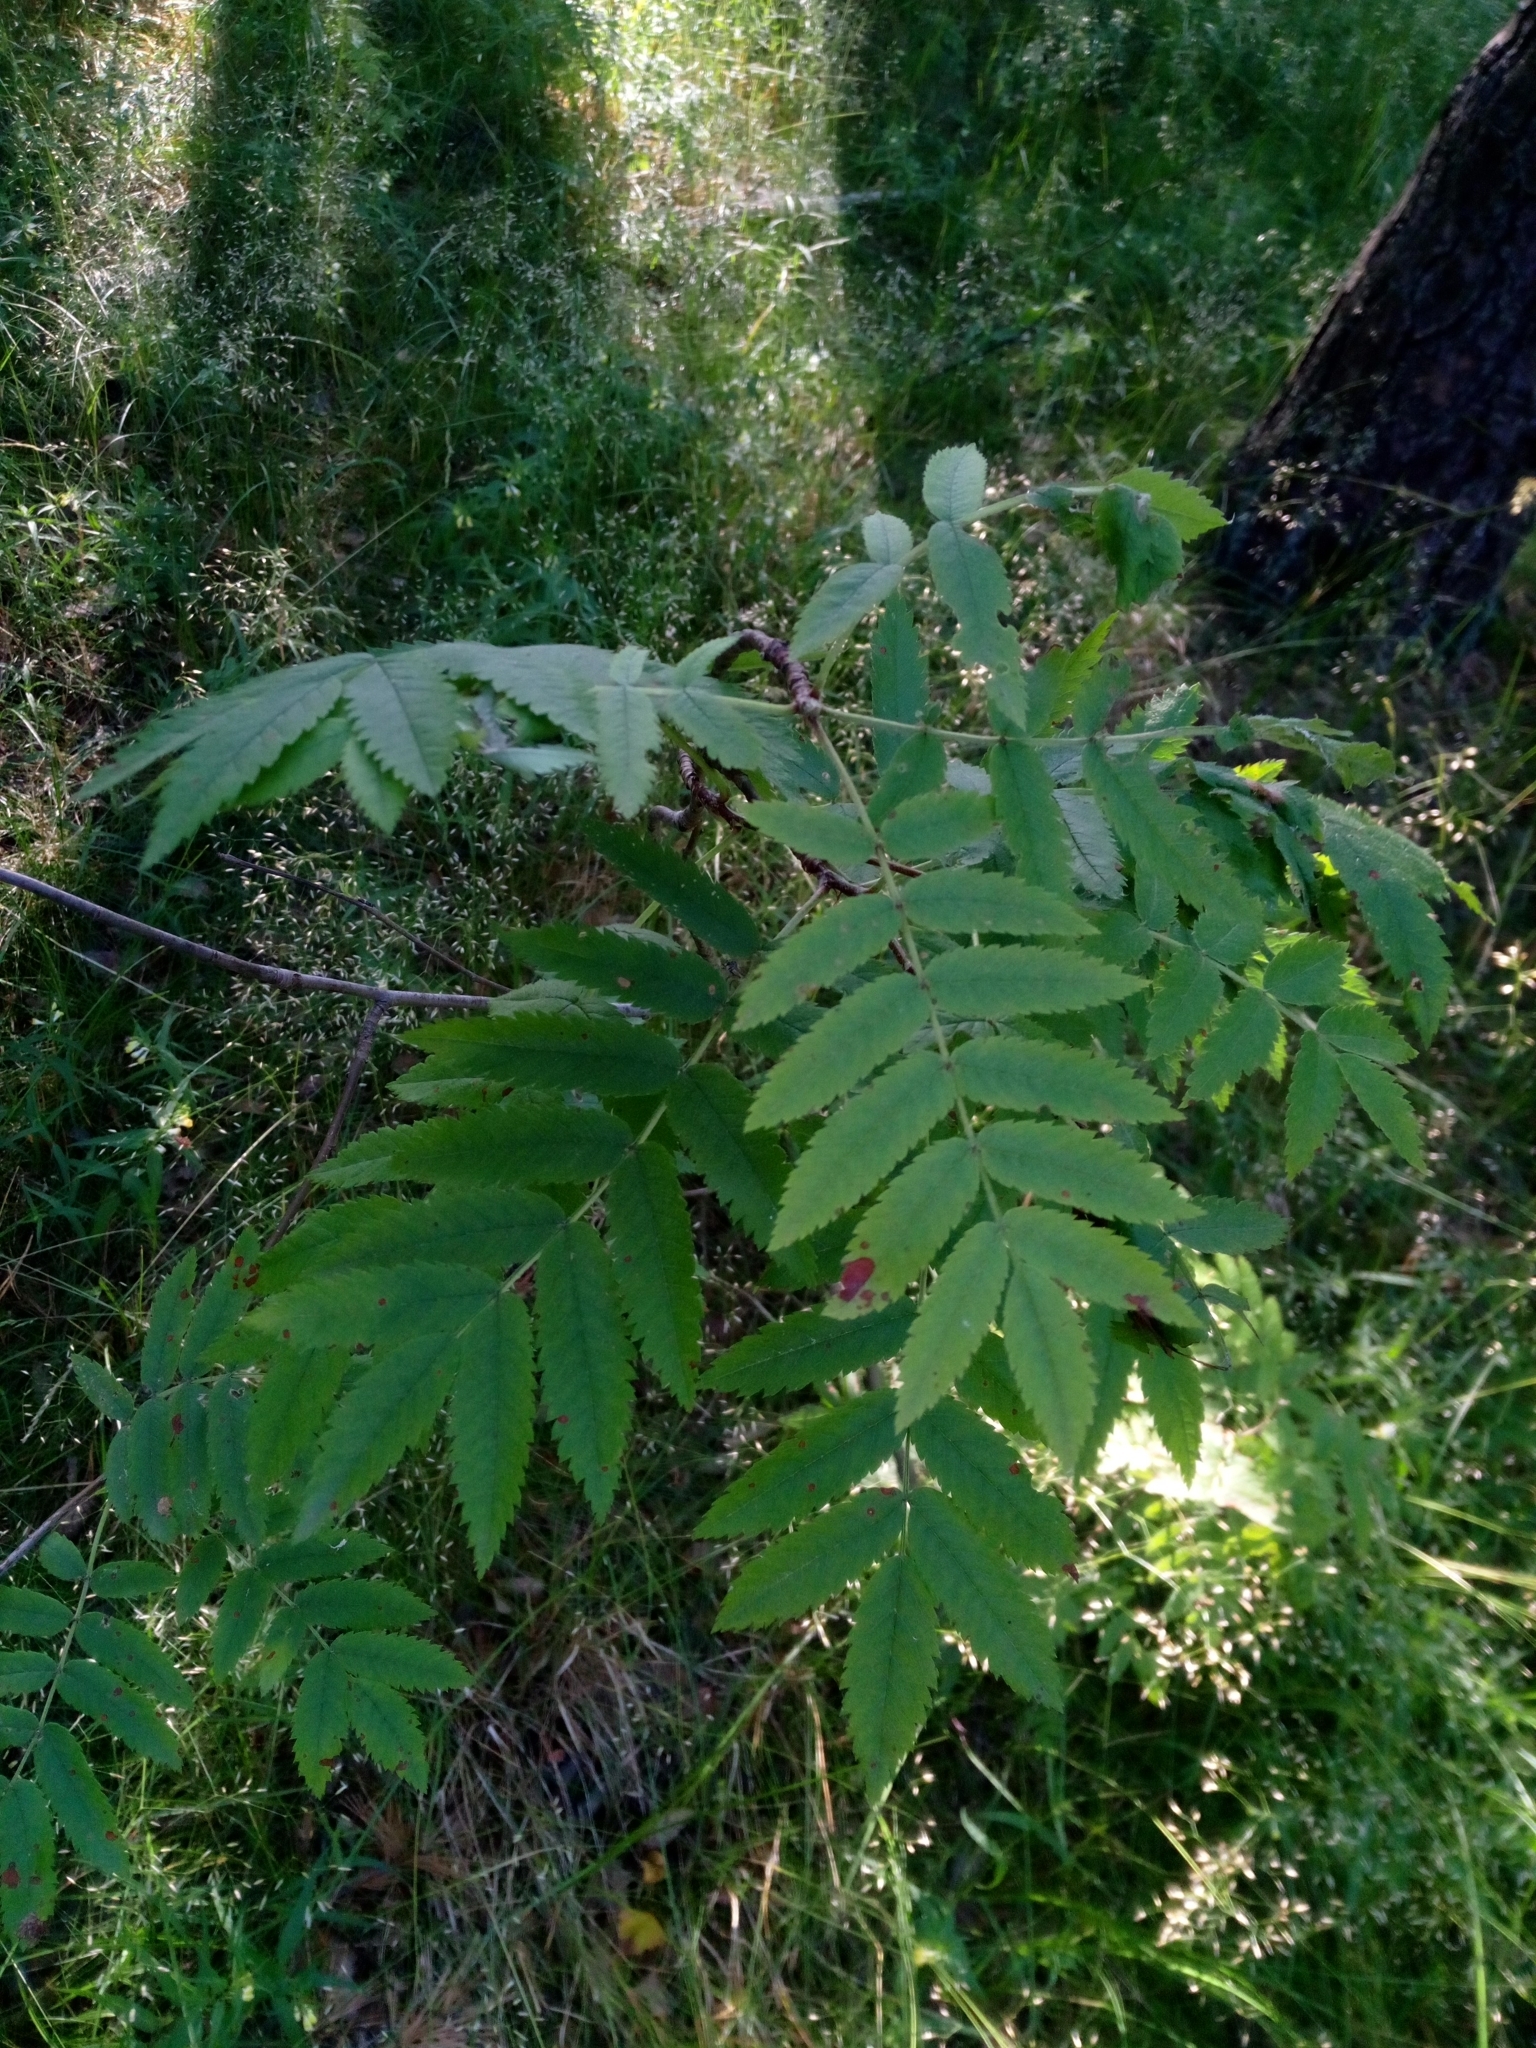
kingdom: Plantae
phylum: Tracheophyta
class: Magnoliopsida
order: Rosales
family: Rosaceae
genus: Sorbus
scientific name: Sorbus aucuparia
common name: Rowan
